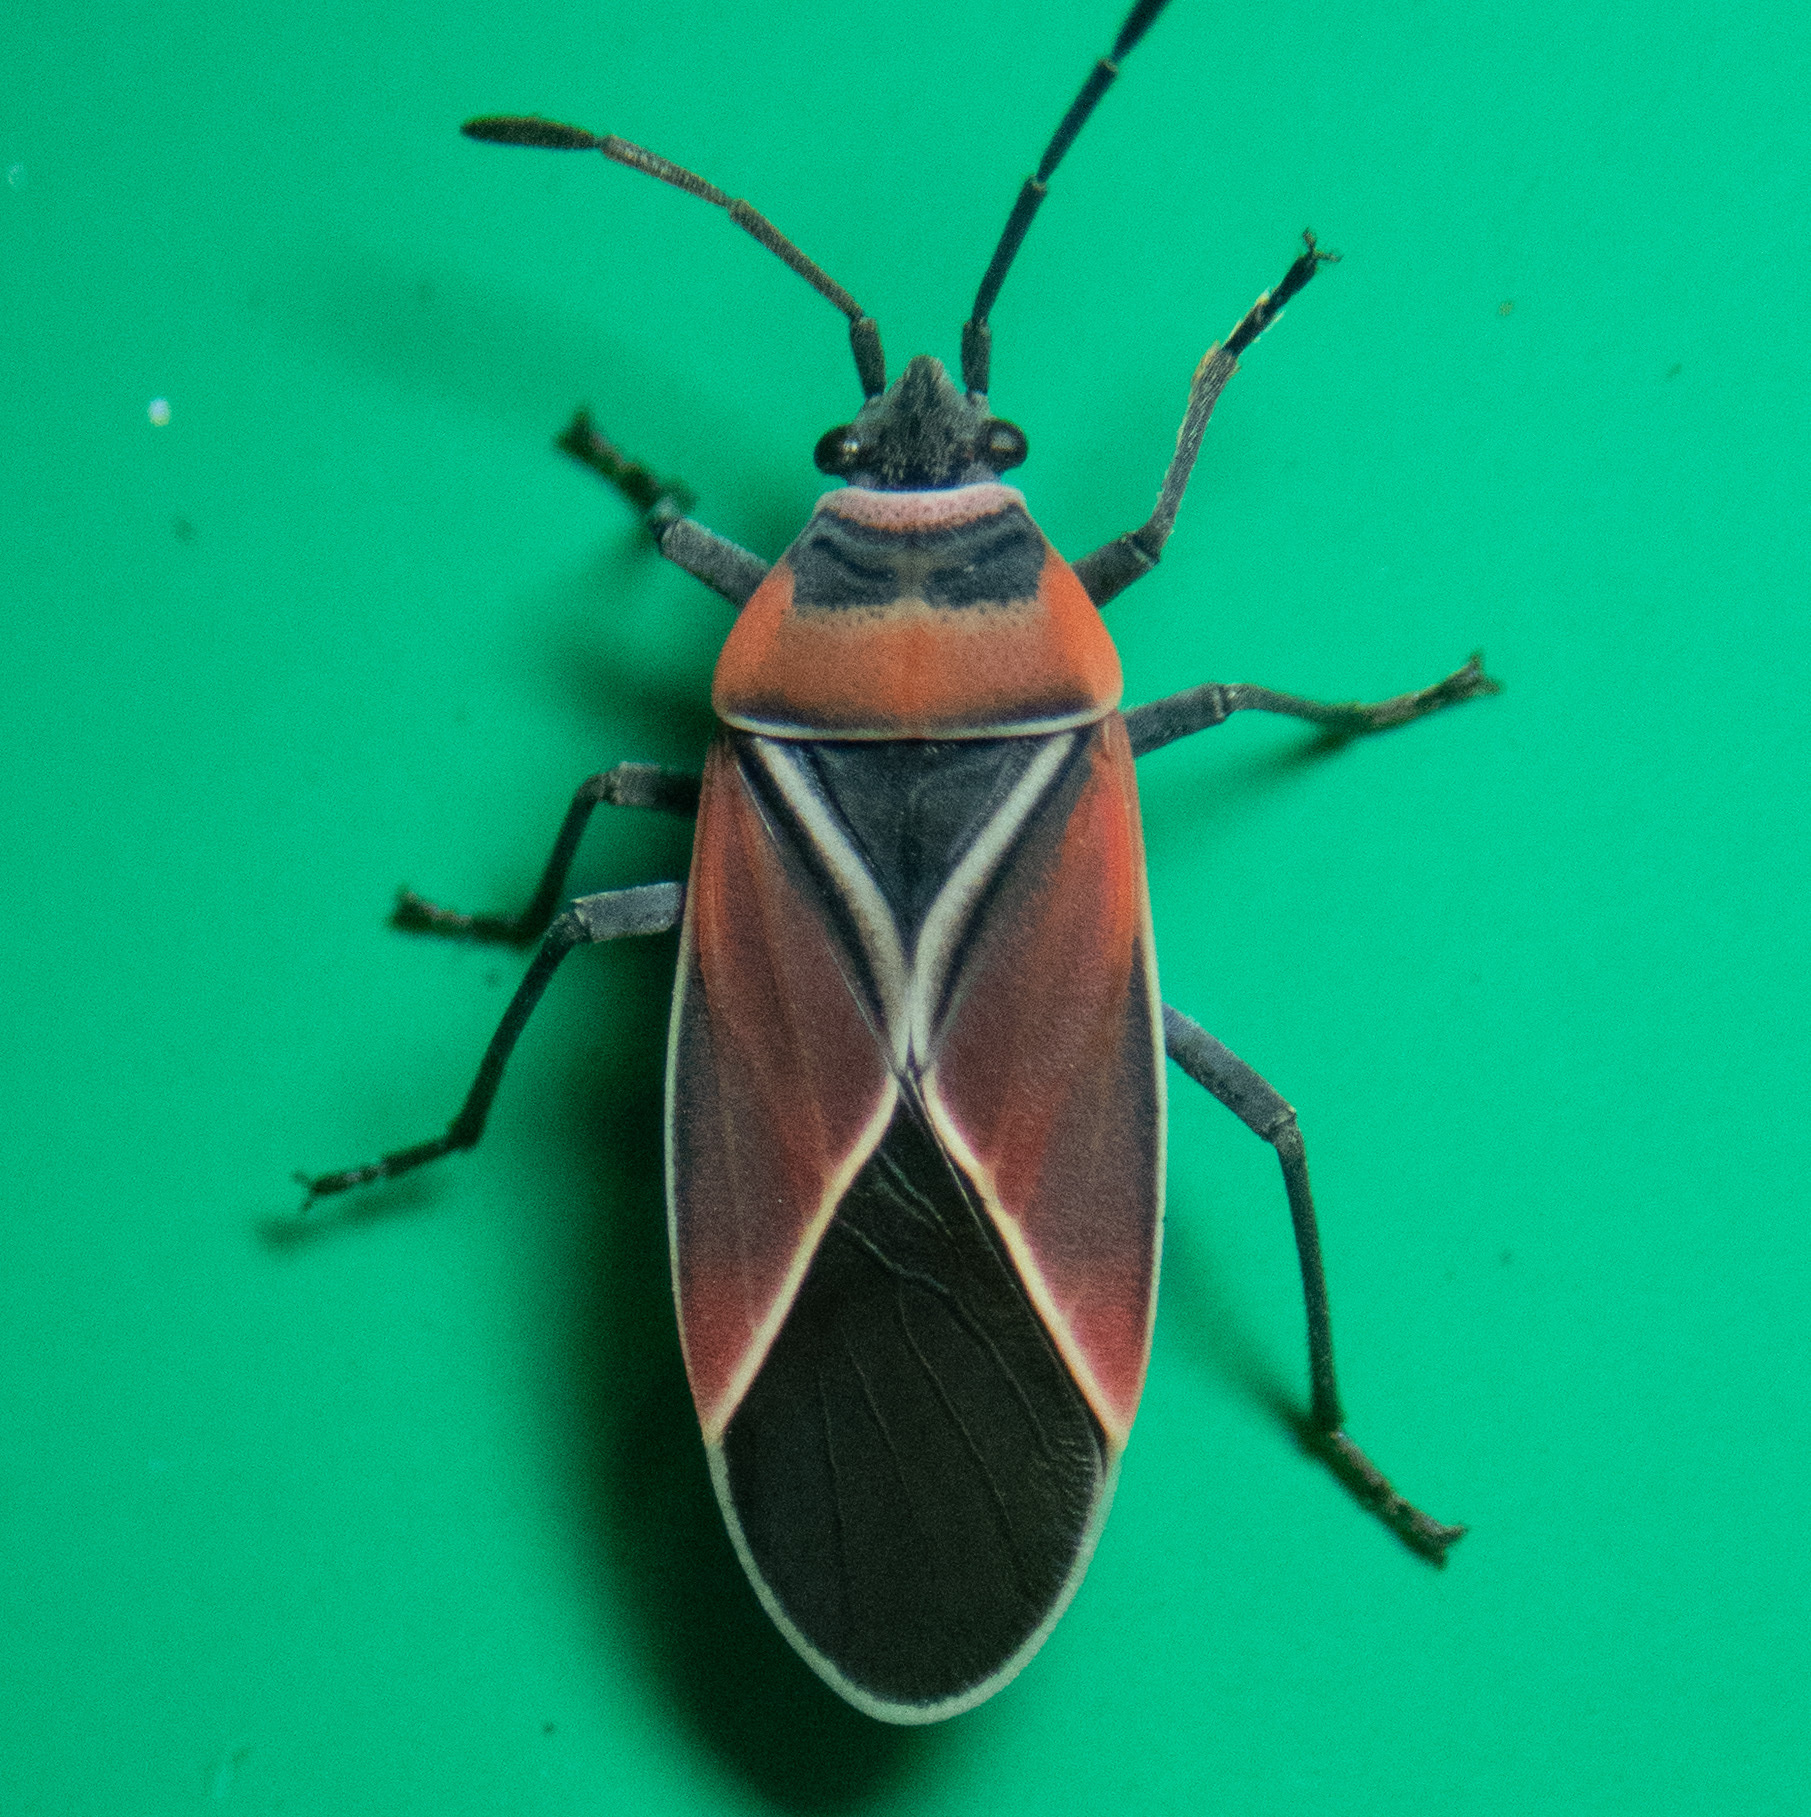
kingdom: Animalia
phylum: Arthropoda
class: Insecta
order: Hemiptera
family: Lygaeidae
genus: Neacoryphus
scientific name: Neacoryphus bicrucis
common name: Lygaeid bug
